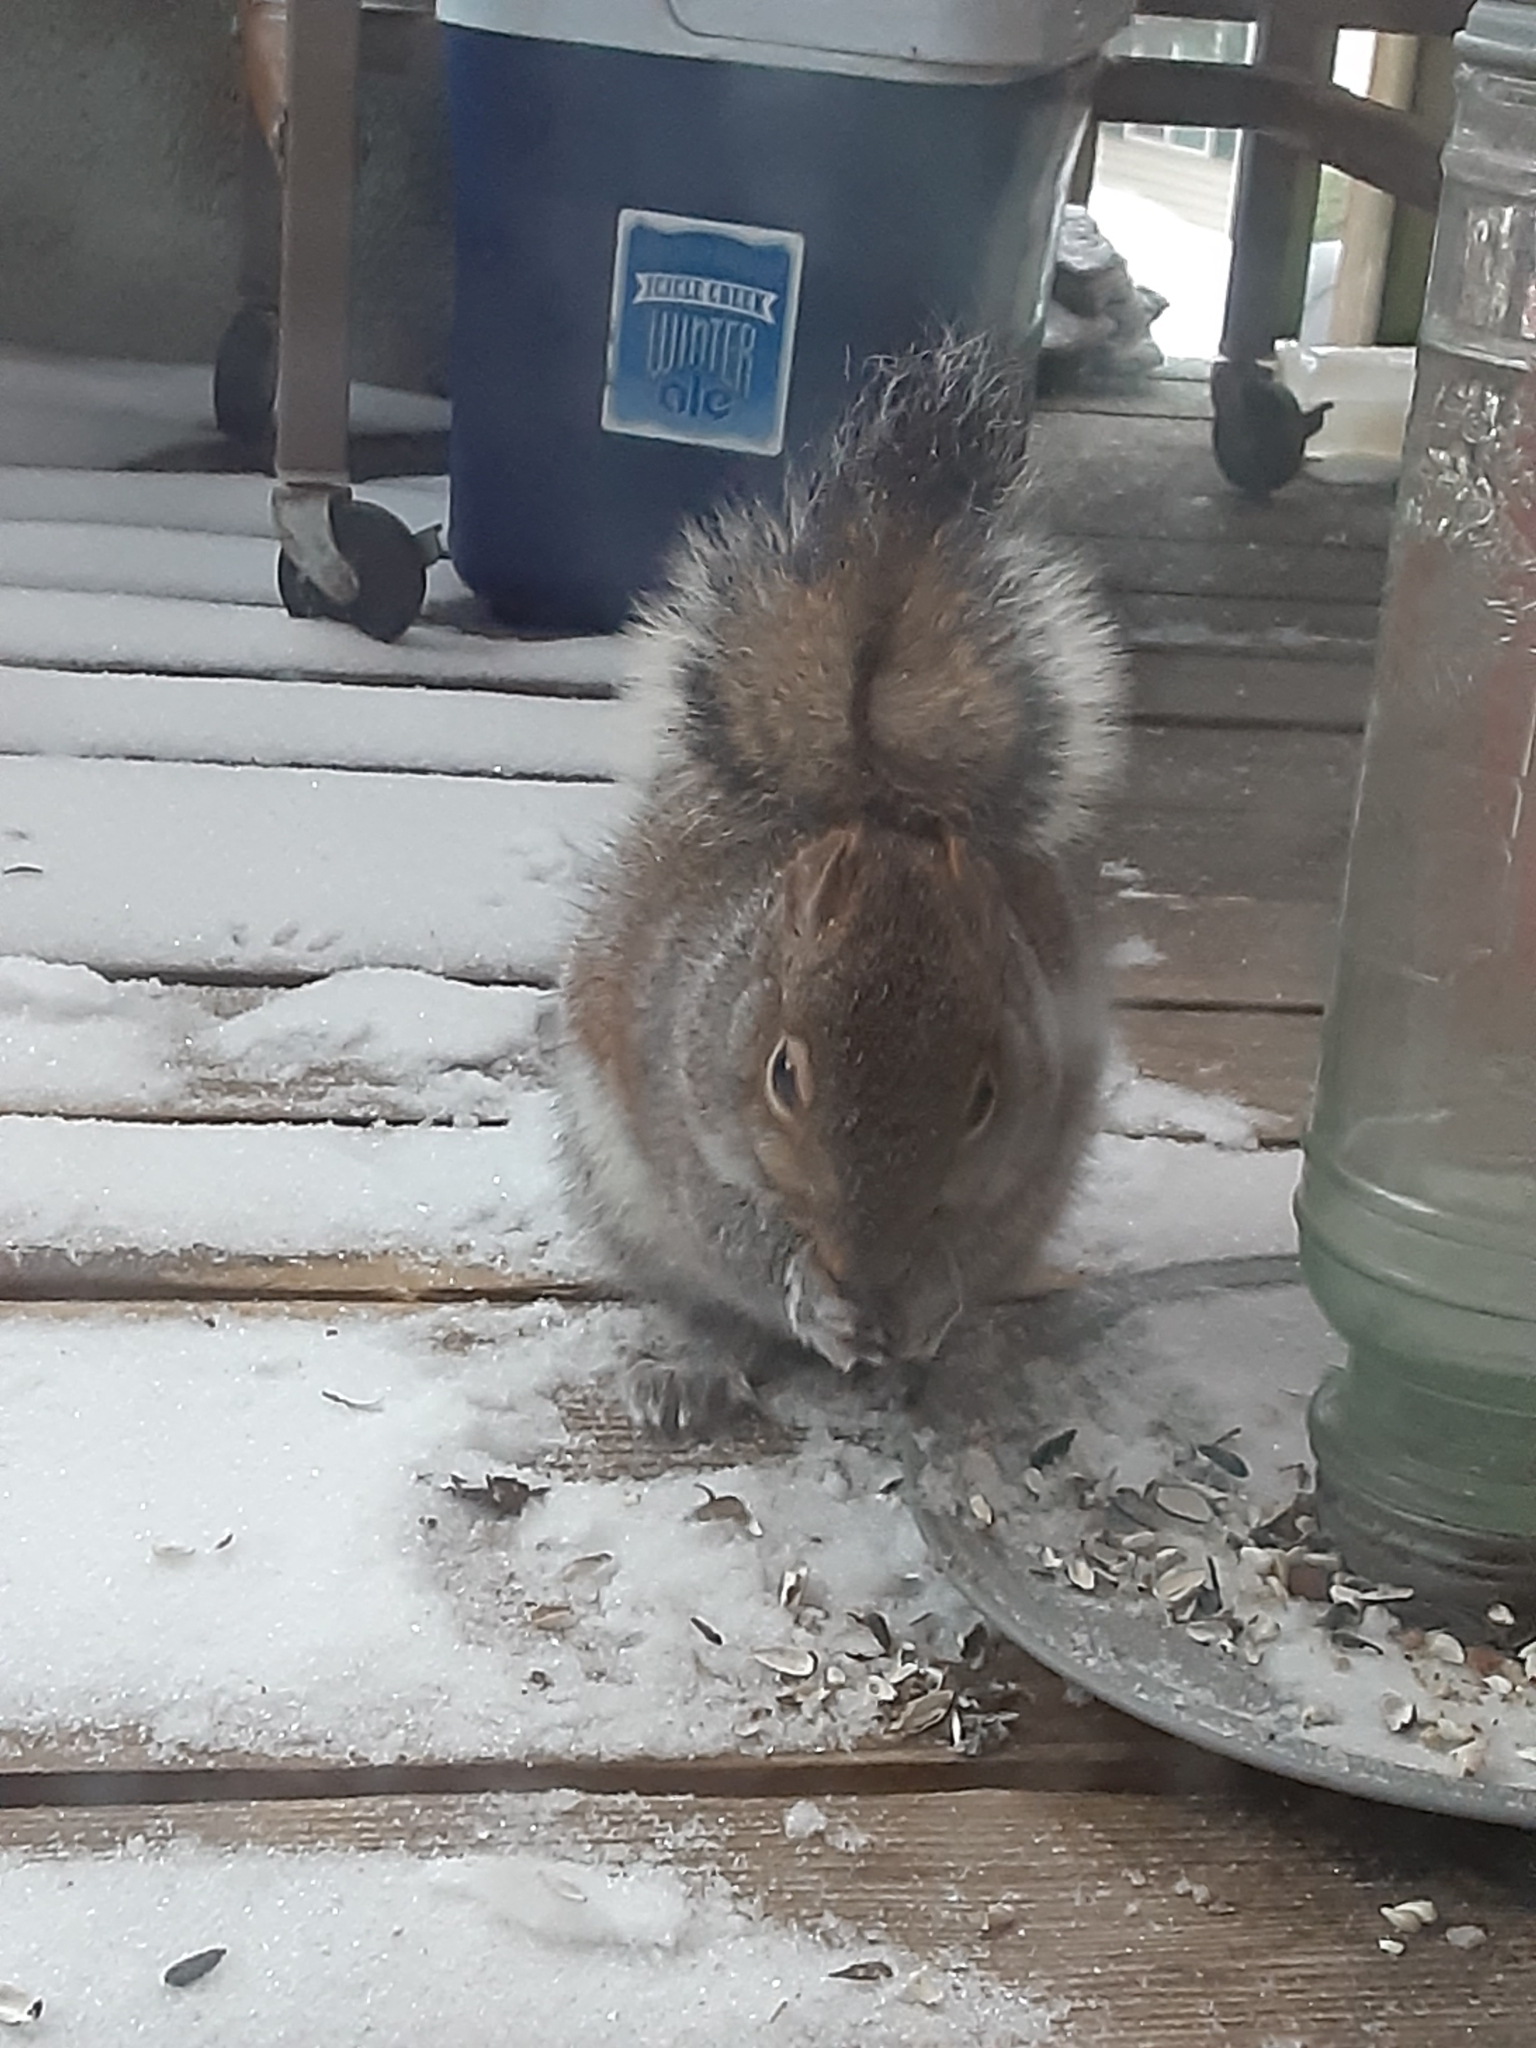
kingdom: Animalia
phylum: Chordata
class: Mammalia
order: Rodentia
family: Sciuridae
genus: Sciurus
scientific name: Sciurus carolinensis
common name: Eastern gray squirrel
